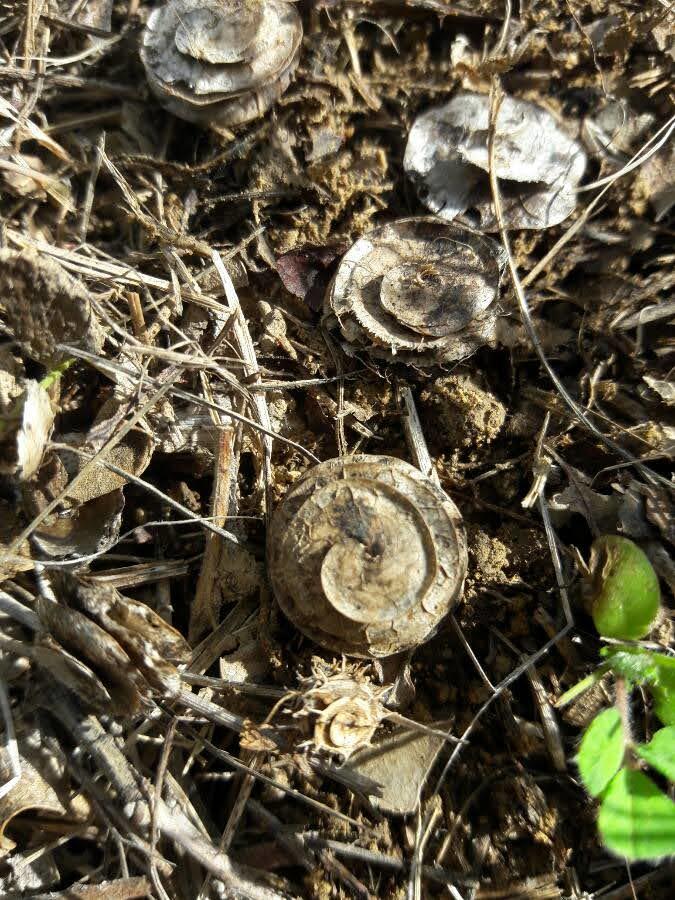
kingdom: Plantae
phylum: Tracheophyta
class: Magnoliopsida
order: Fabales
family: Fabaceae
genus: Medicago
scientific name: Medicago orbicularis
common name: Button medick
